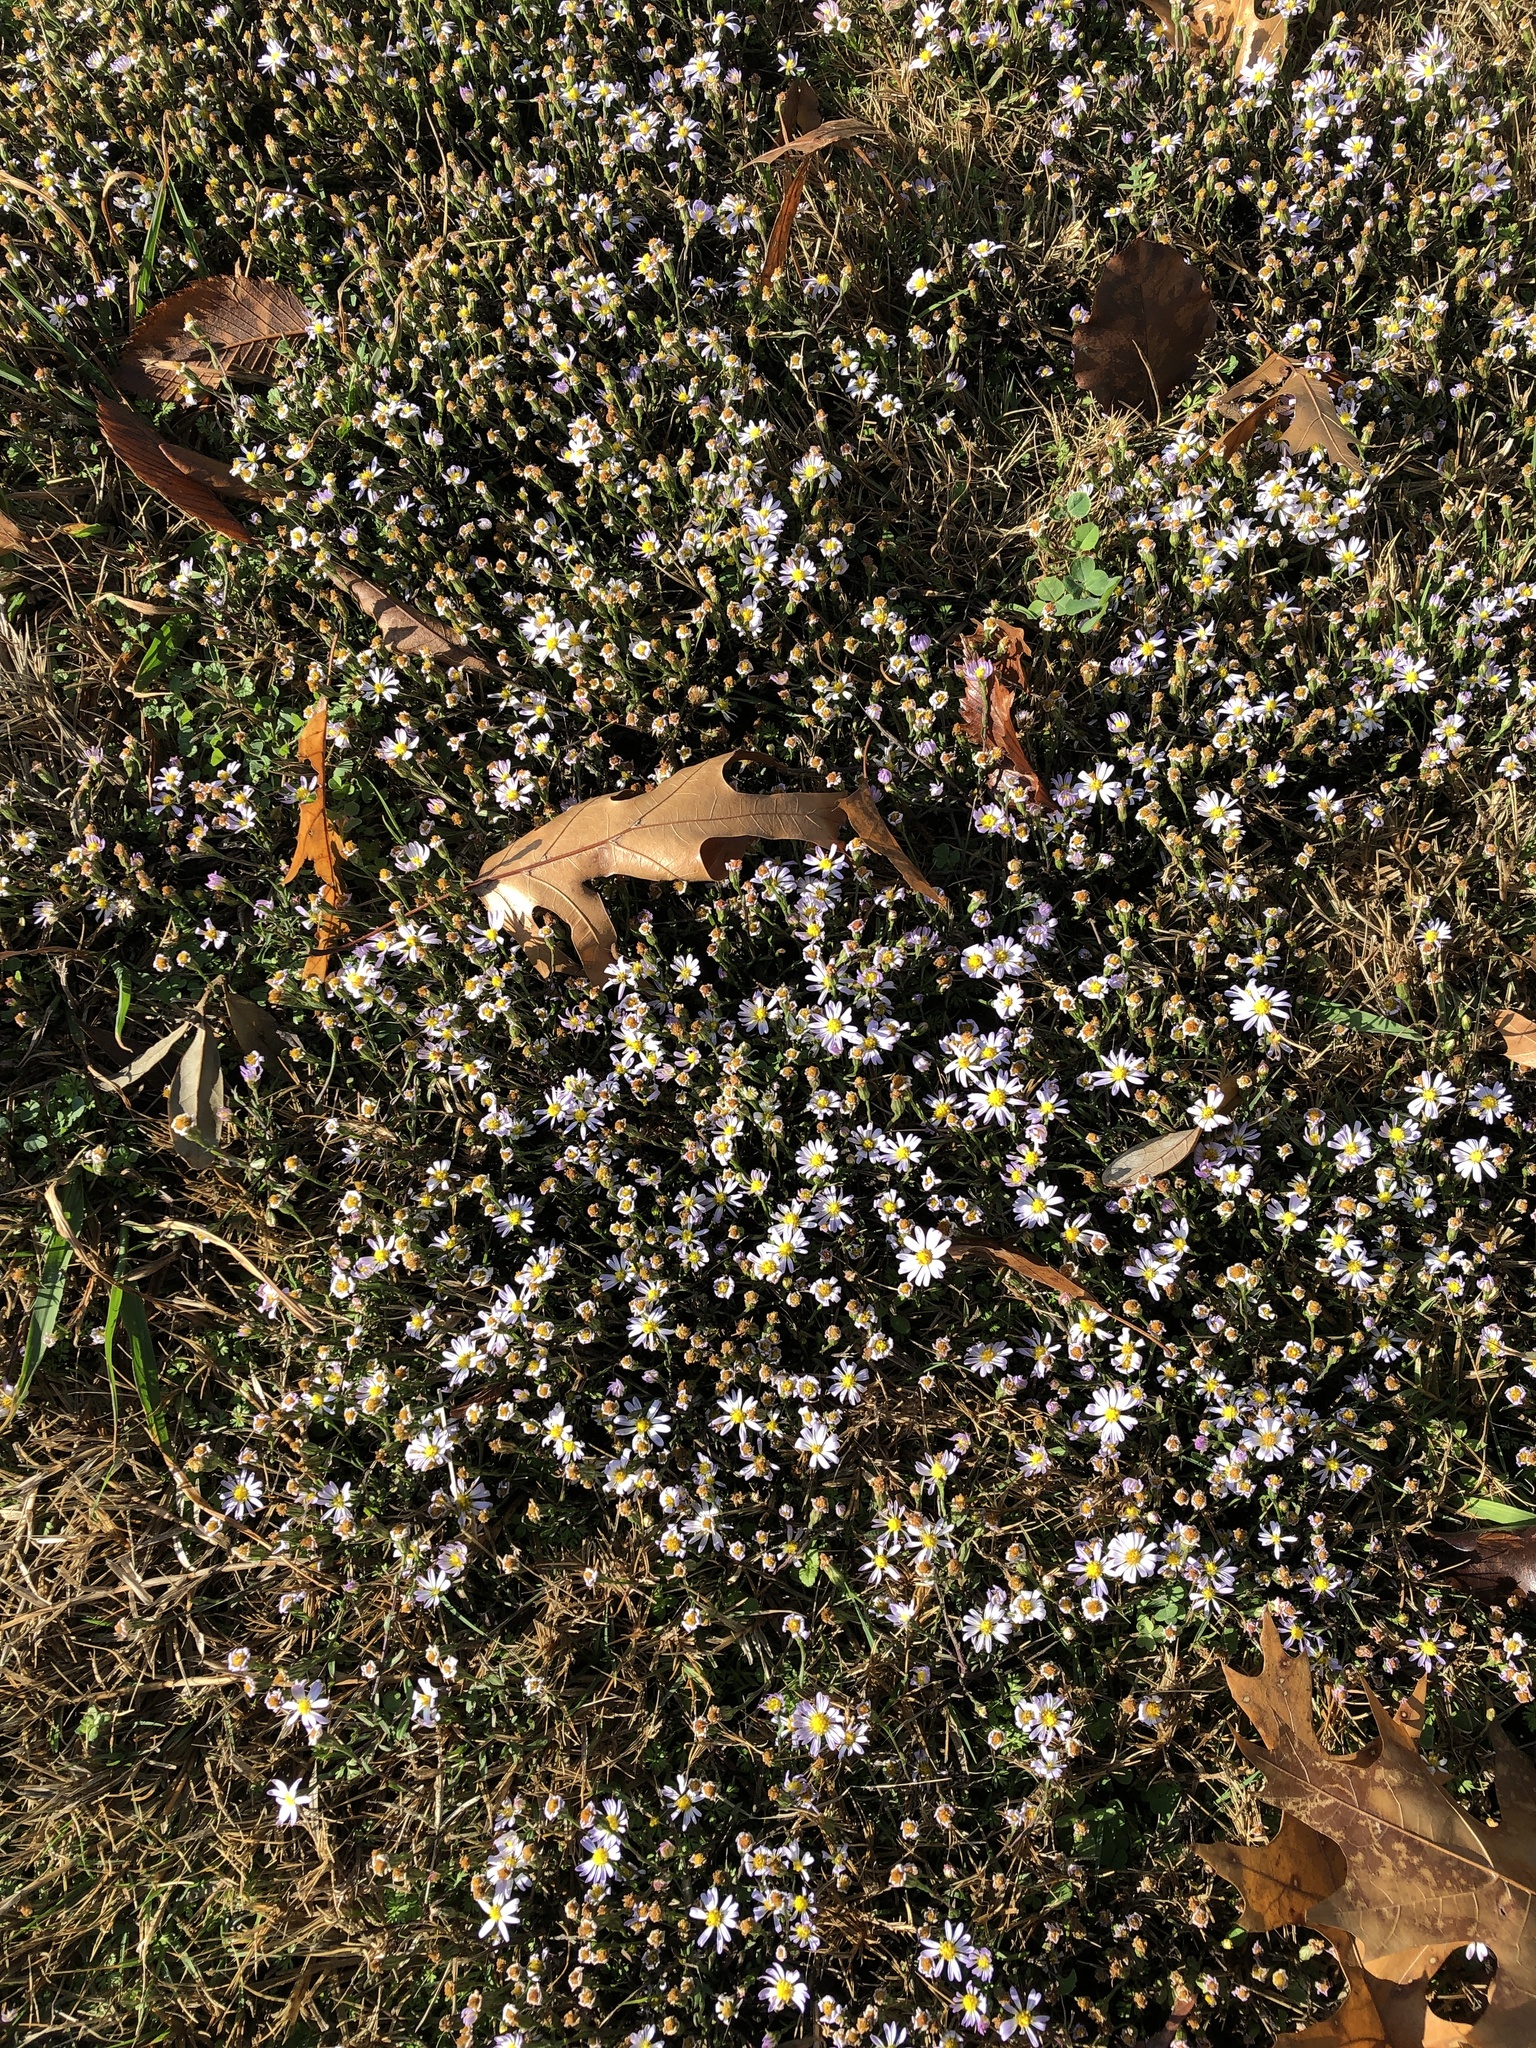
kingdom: Plantae
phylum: Tracheophyta
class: Magnoliopsida
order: Asterales
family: Asteraceae
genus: Symphyotrichum
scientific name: Symphyotrichum divaricatum
